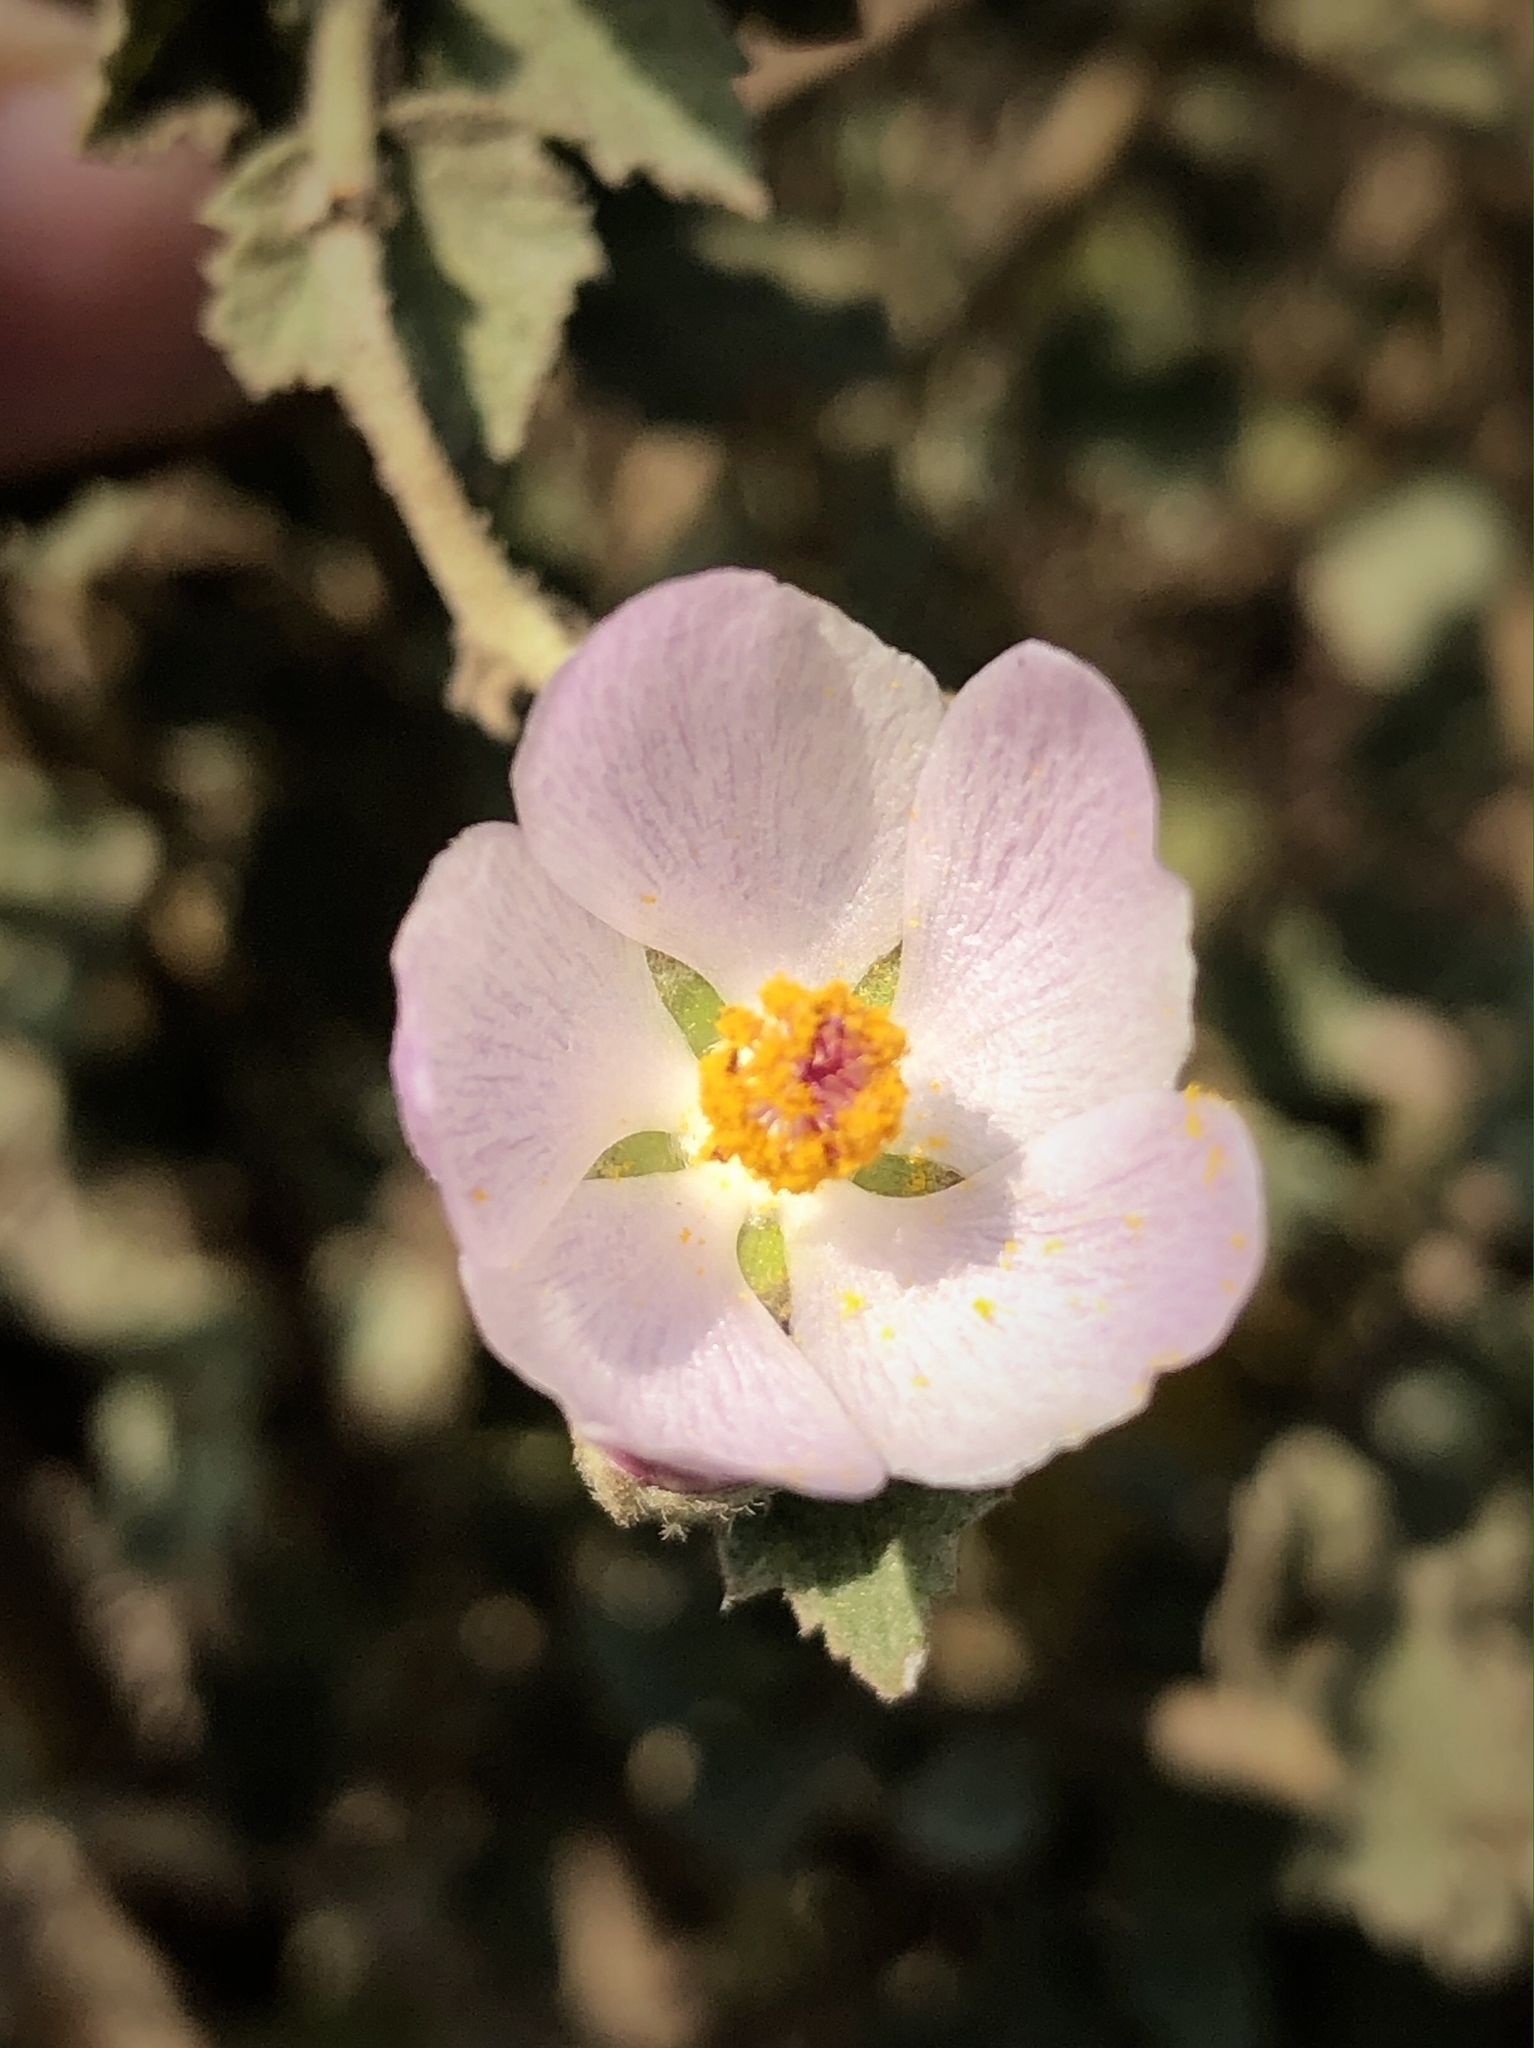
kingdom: Plantae
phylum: Tracheophyta
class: Magnoliopsida
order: Malvales
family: Malvaceae
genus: Malacothamnus
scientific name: Malacothamnus fasciculatus
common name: Sant cruz island bush-mallow
